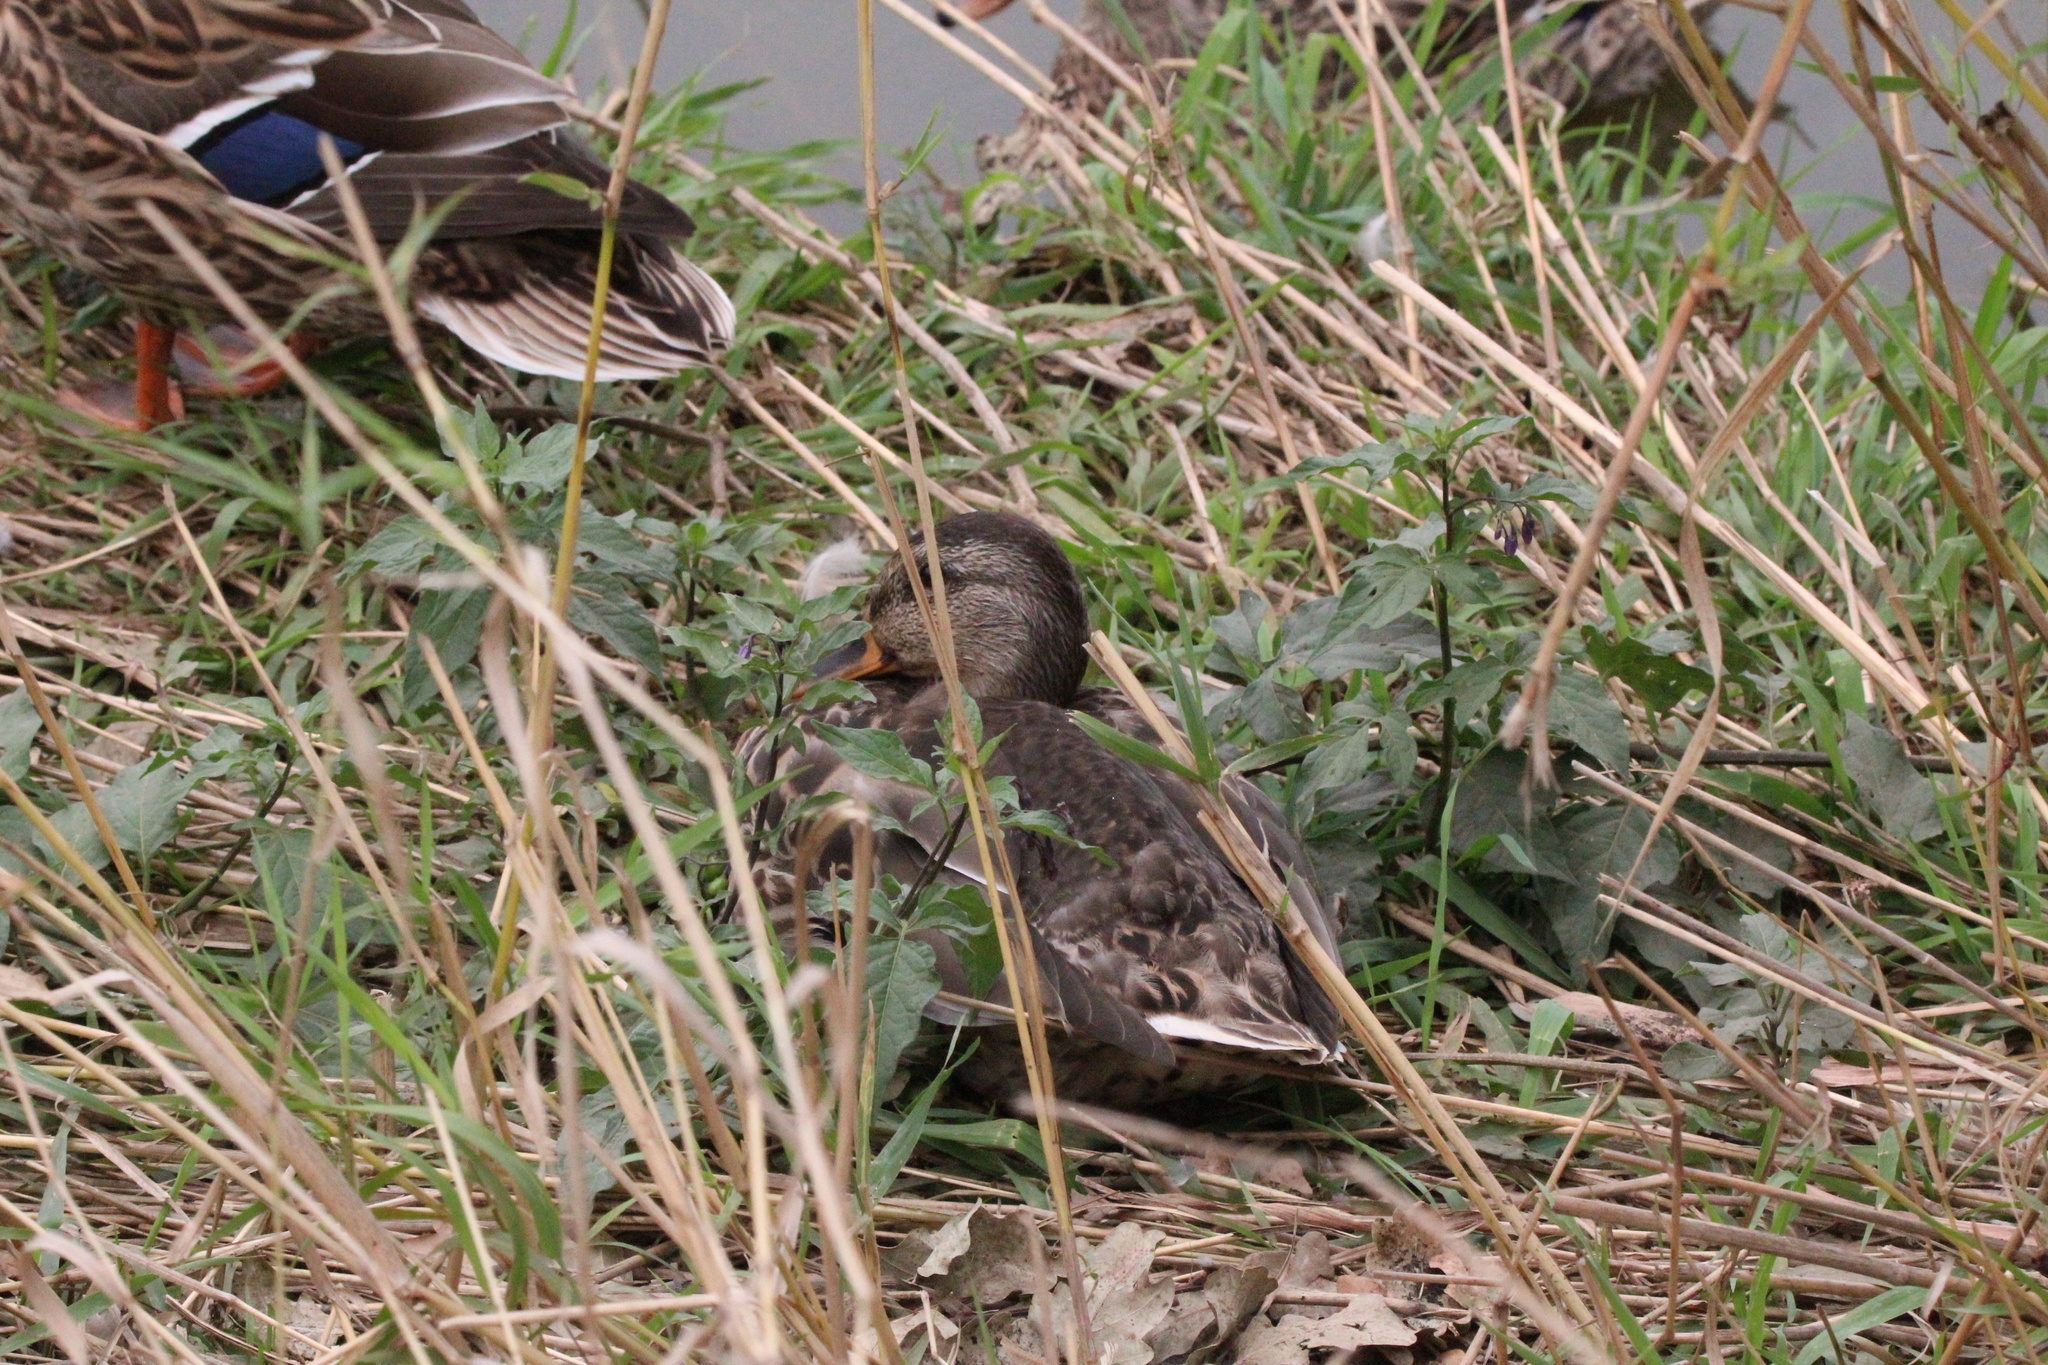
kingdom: Animalia
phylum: Chordata
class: Aves
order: Anseriformes
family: Anatidae
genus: Anas
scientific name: Anas platyrhynchos
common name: Mallard
